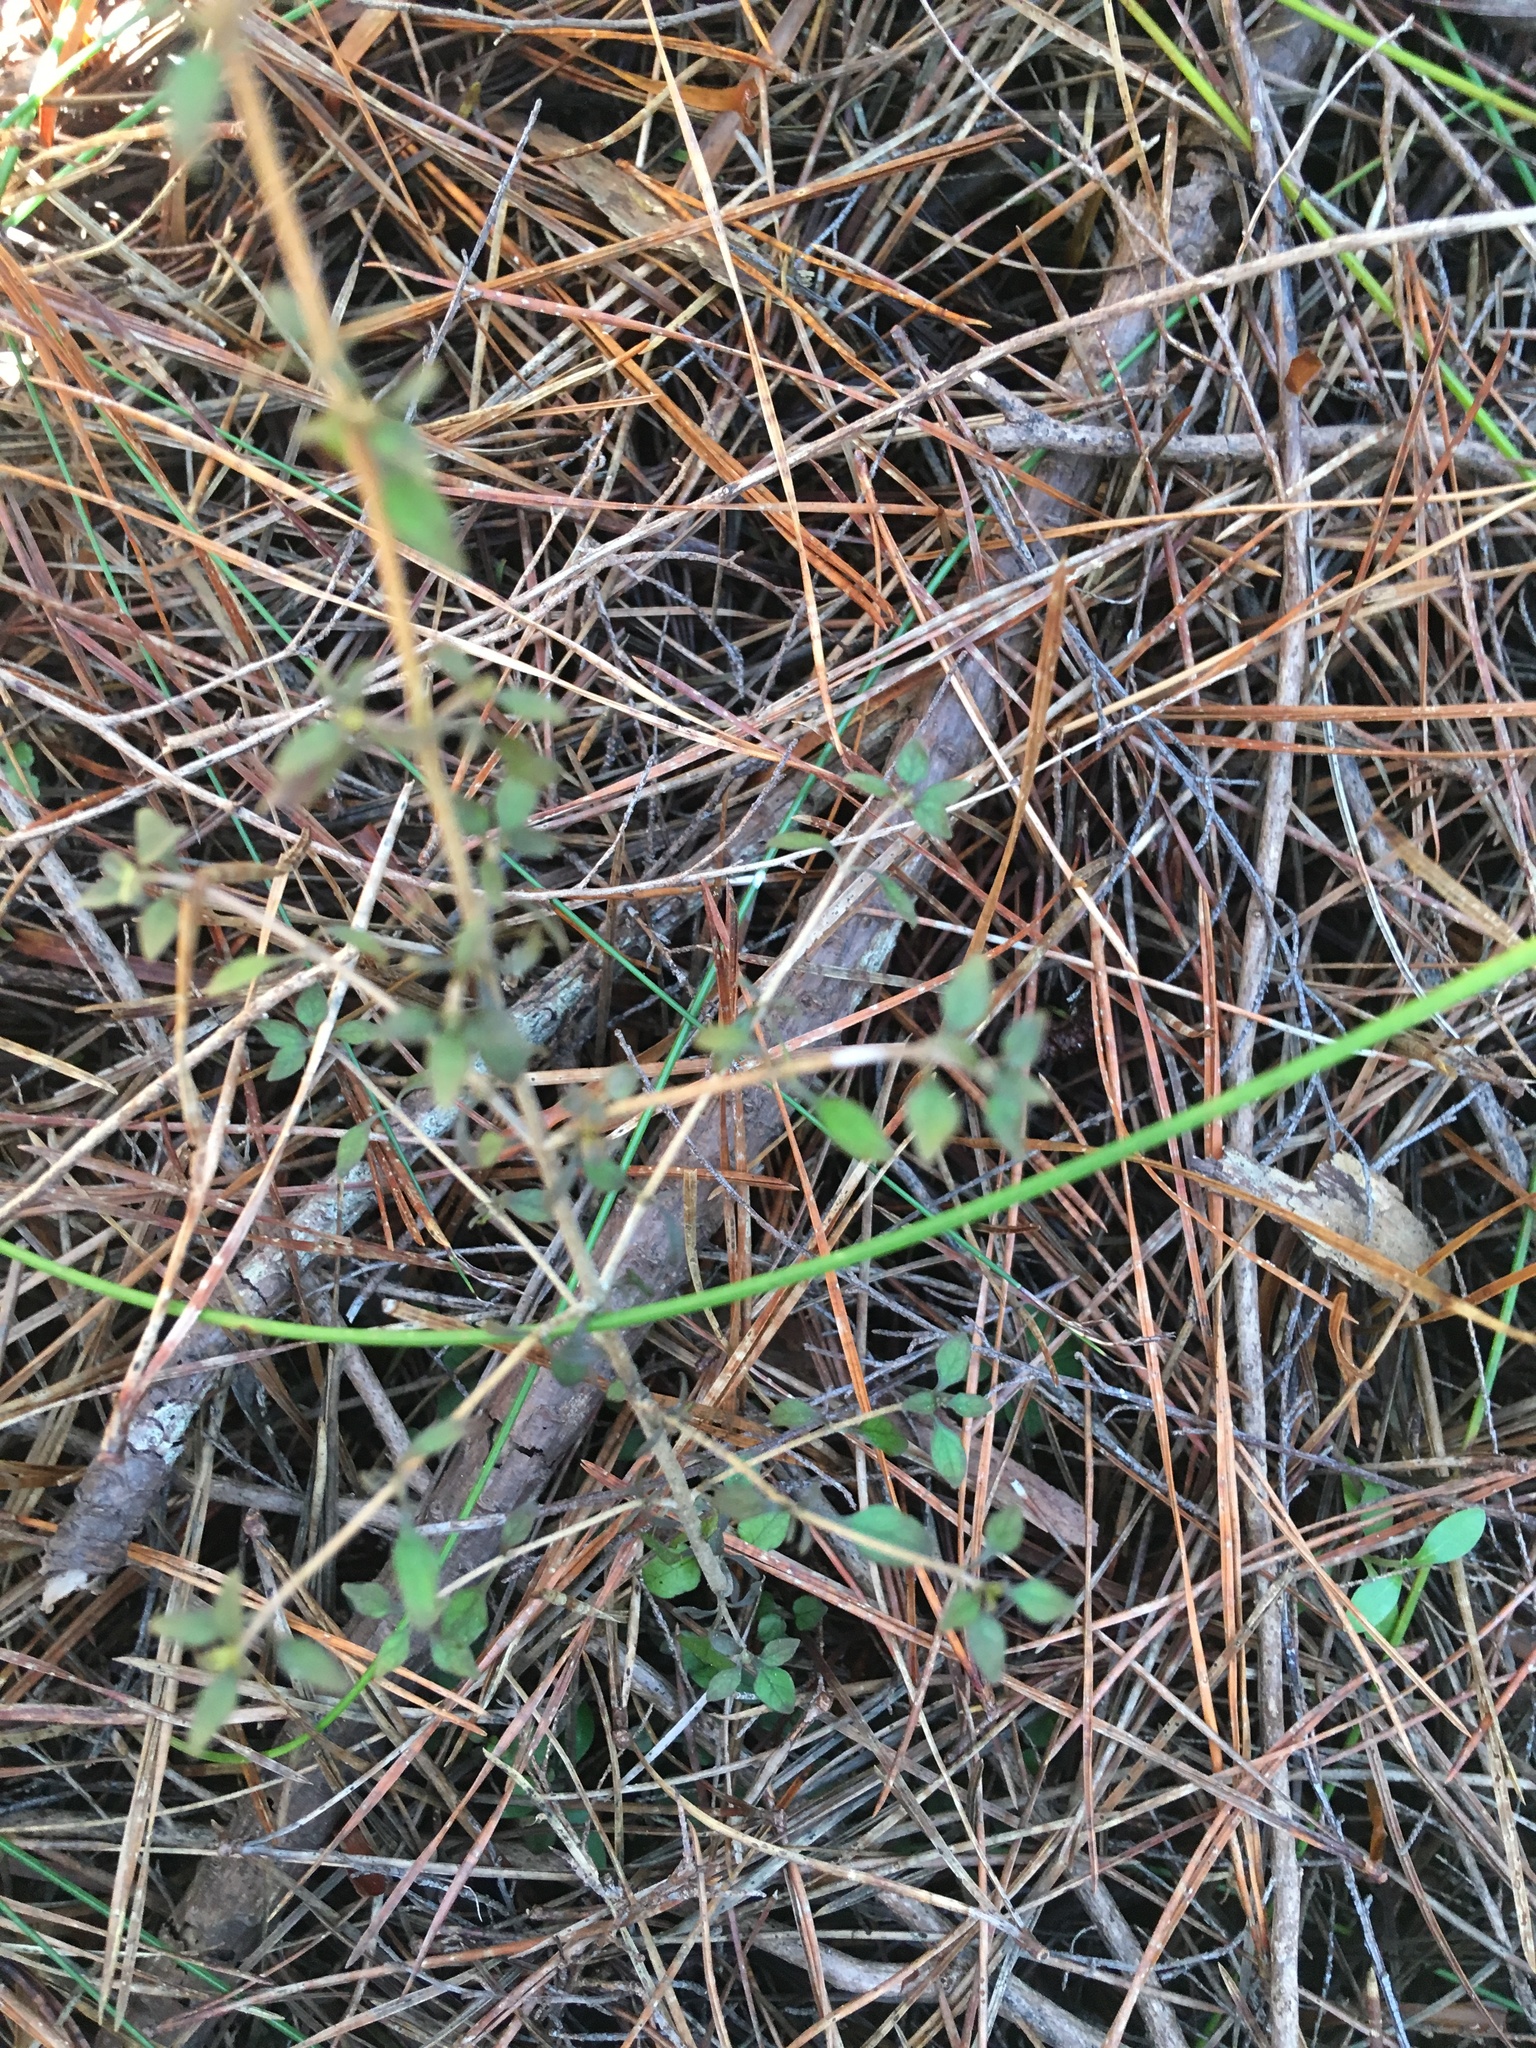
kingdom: Plantae
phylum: Tracheophyta
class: Magnoliopsida
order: Gentianales
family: Rubiaceae
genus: Coprosma
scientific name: Coprosma rhamnoides
